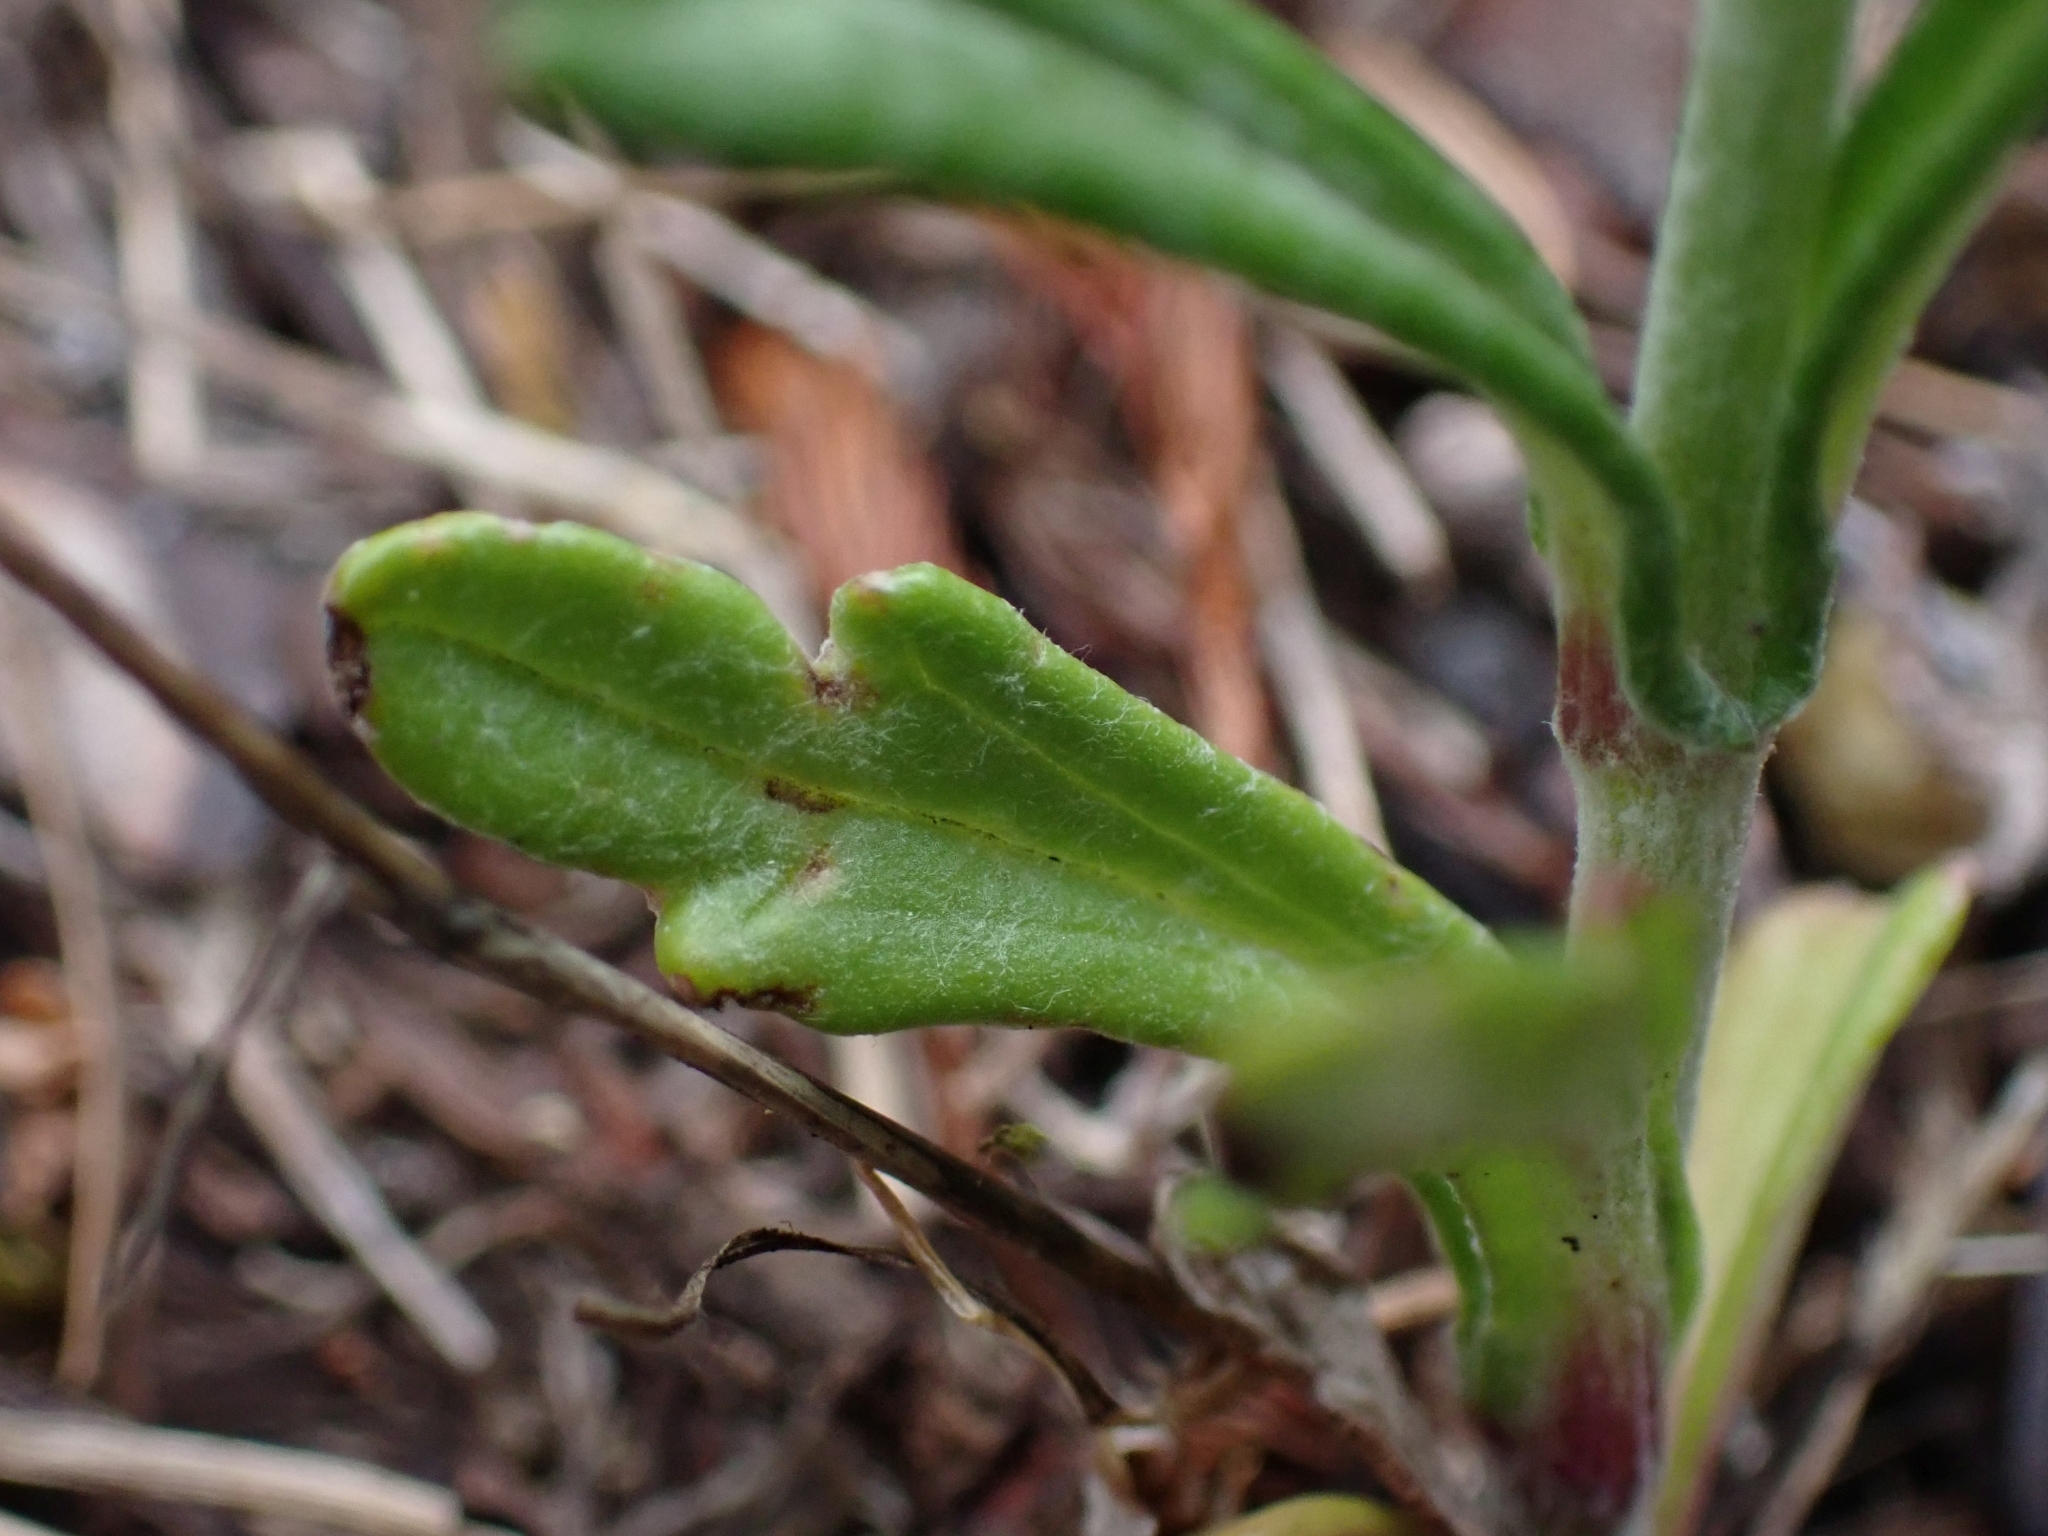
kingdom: Plantae
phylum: Tracheophyta
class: Magnoliopsida
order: Asterales
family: Asteraceae
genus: Eriophyllum
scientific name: Eriophyllum lanatum
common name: Common woolly-sunflower
